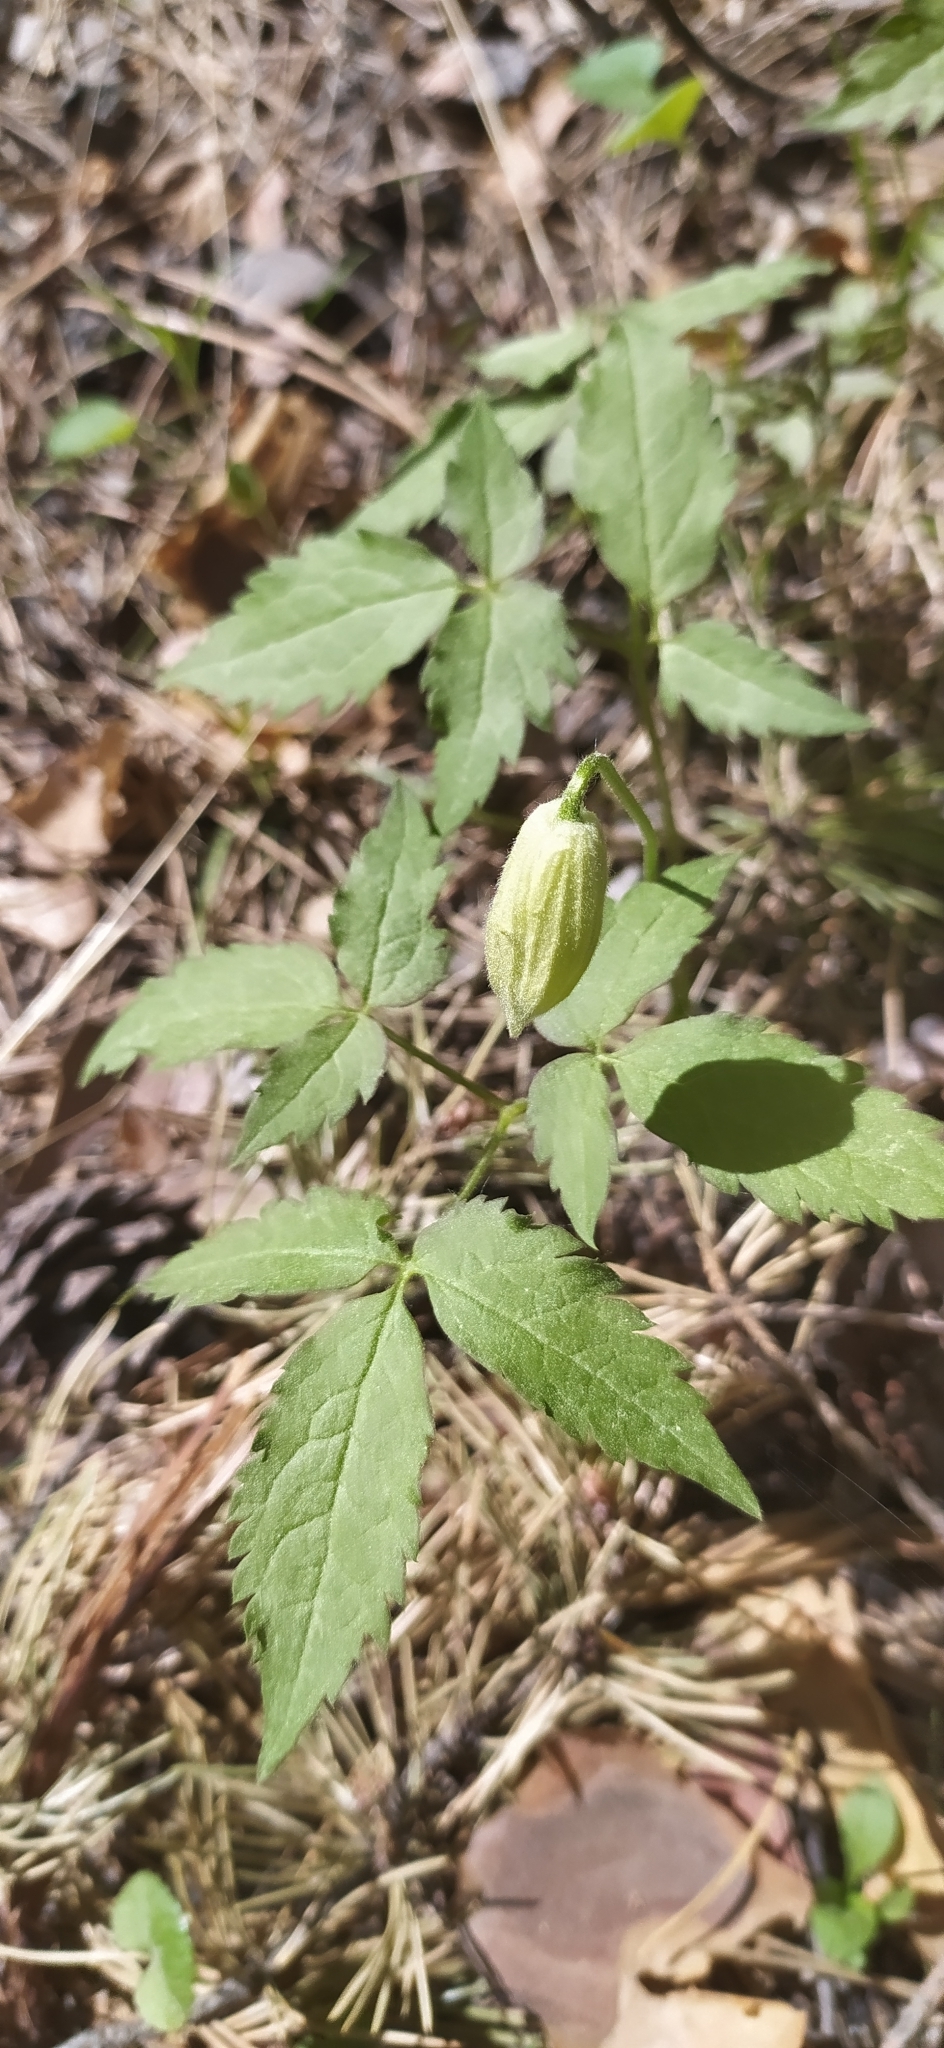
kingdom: Plantae
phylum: Tracheophyta
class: Magnoliopsida
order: Ranunculales
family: Ranunculaceae
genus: Clematis
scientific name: Clematis sibirica
